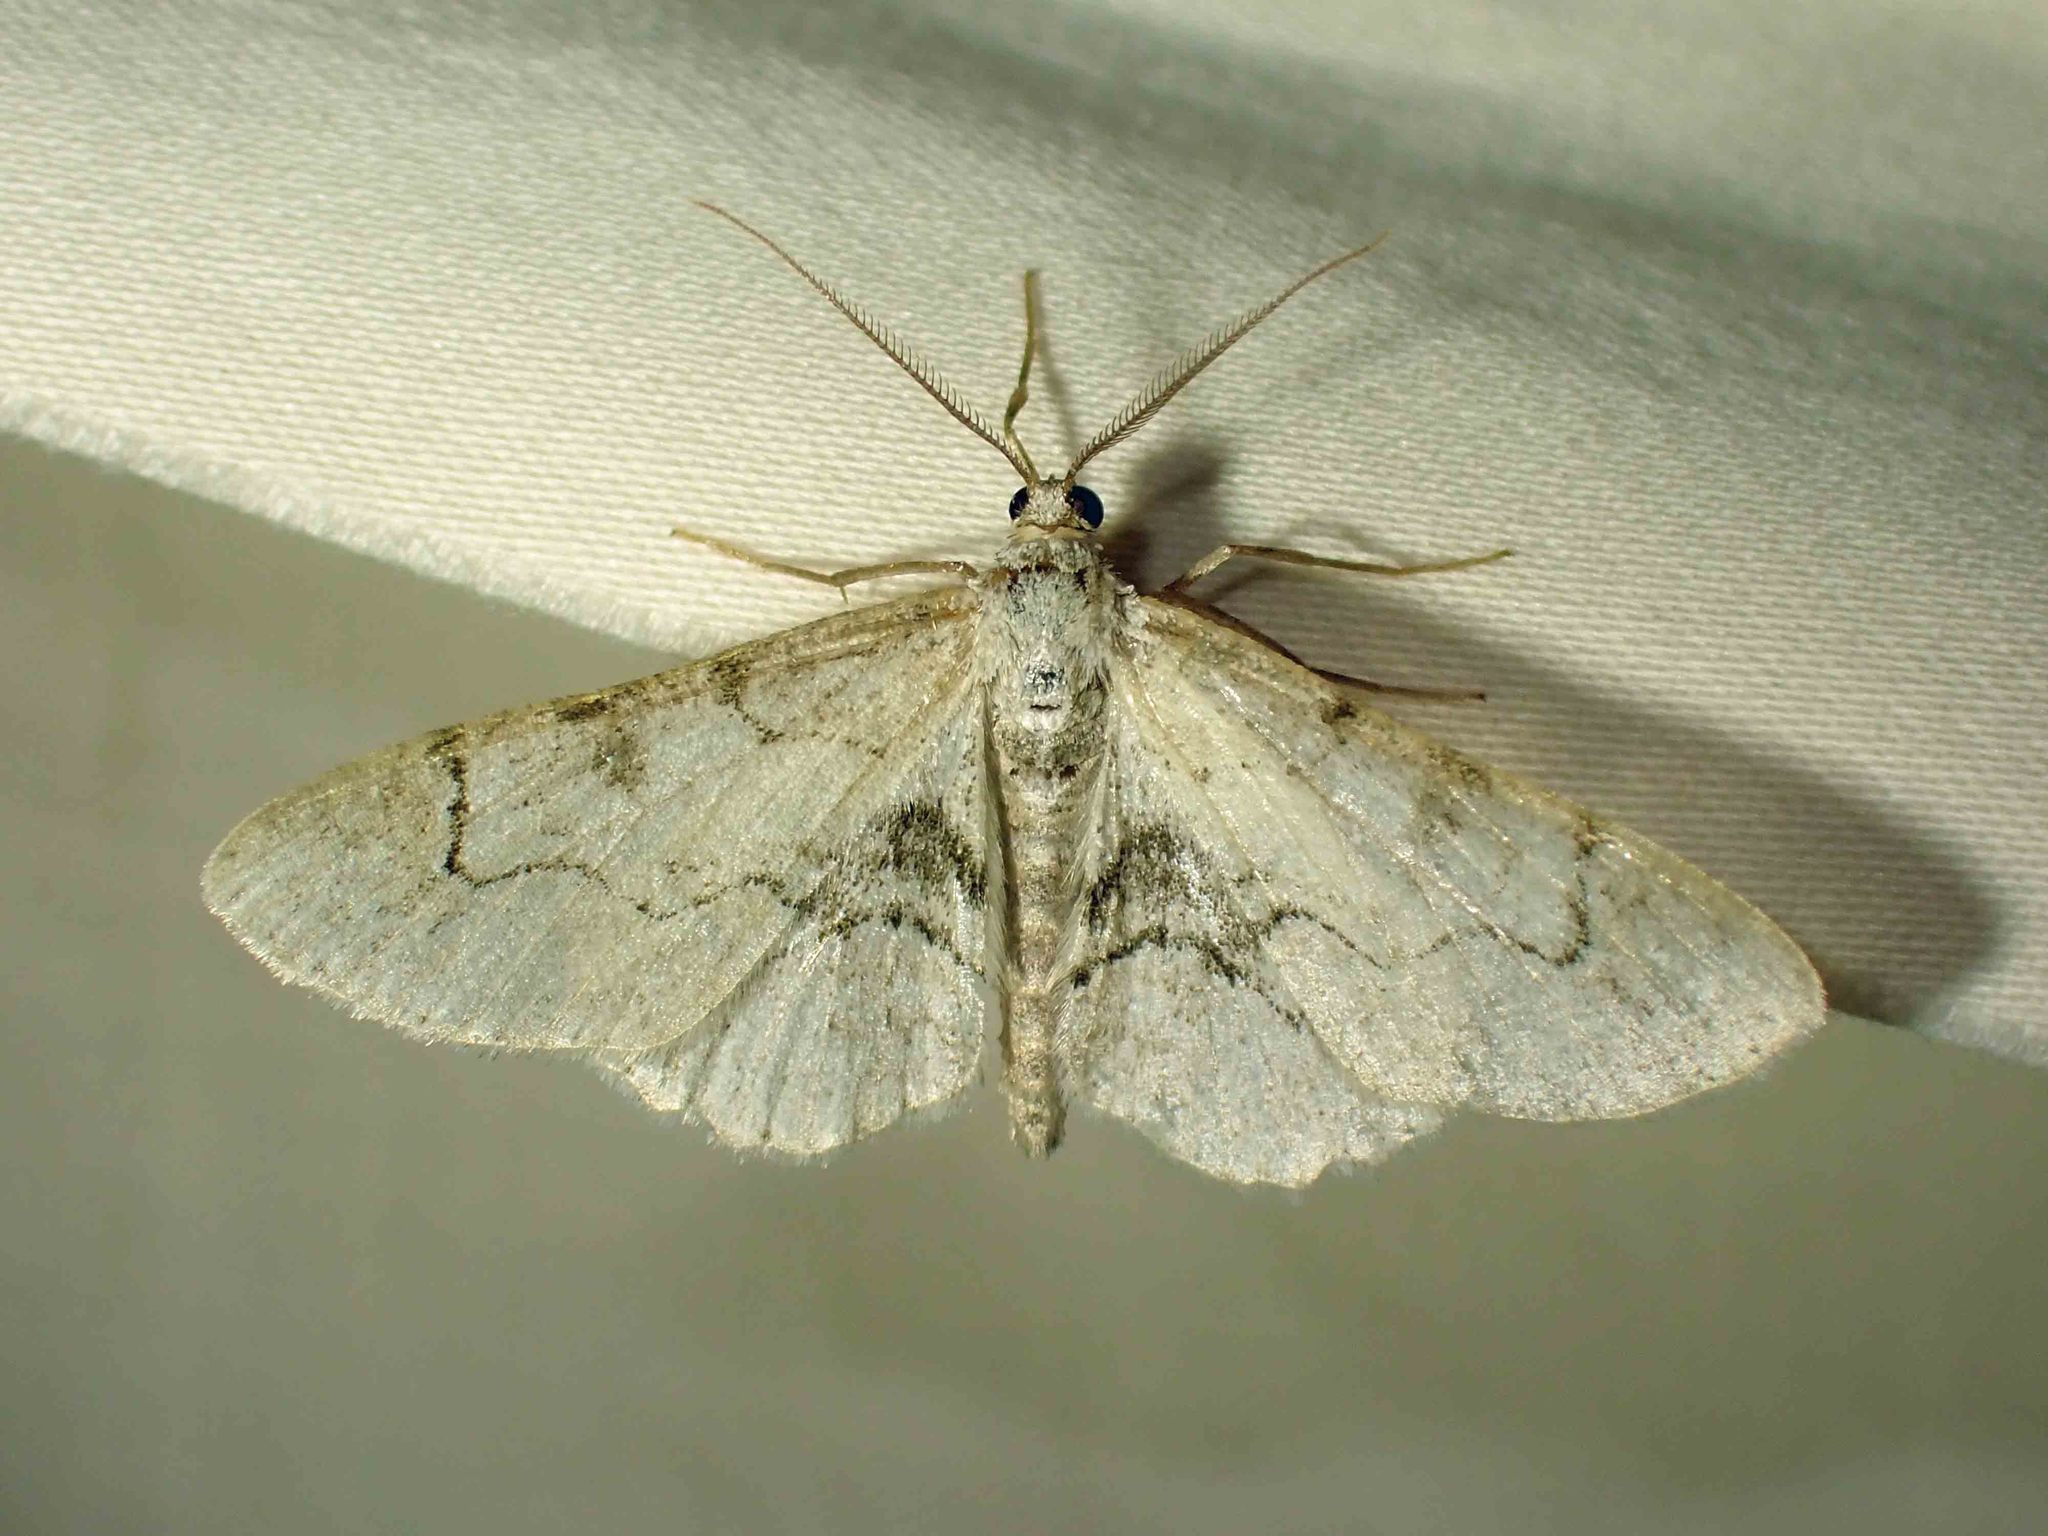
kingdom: Animalia
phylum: Arthropoda
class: Insecta
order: Lepidoptera
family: Geometridae
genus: Iridopsis
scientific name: Iridopsis larvaria
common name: Bent-line gray
